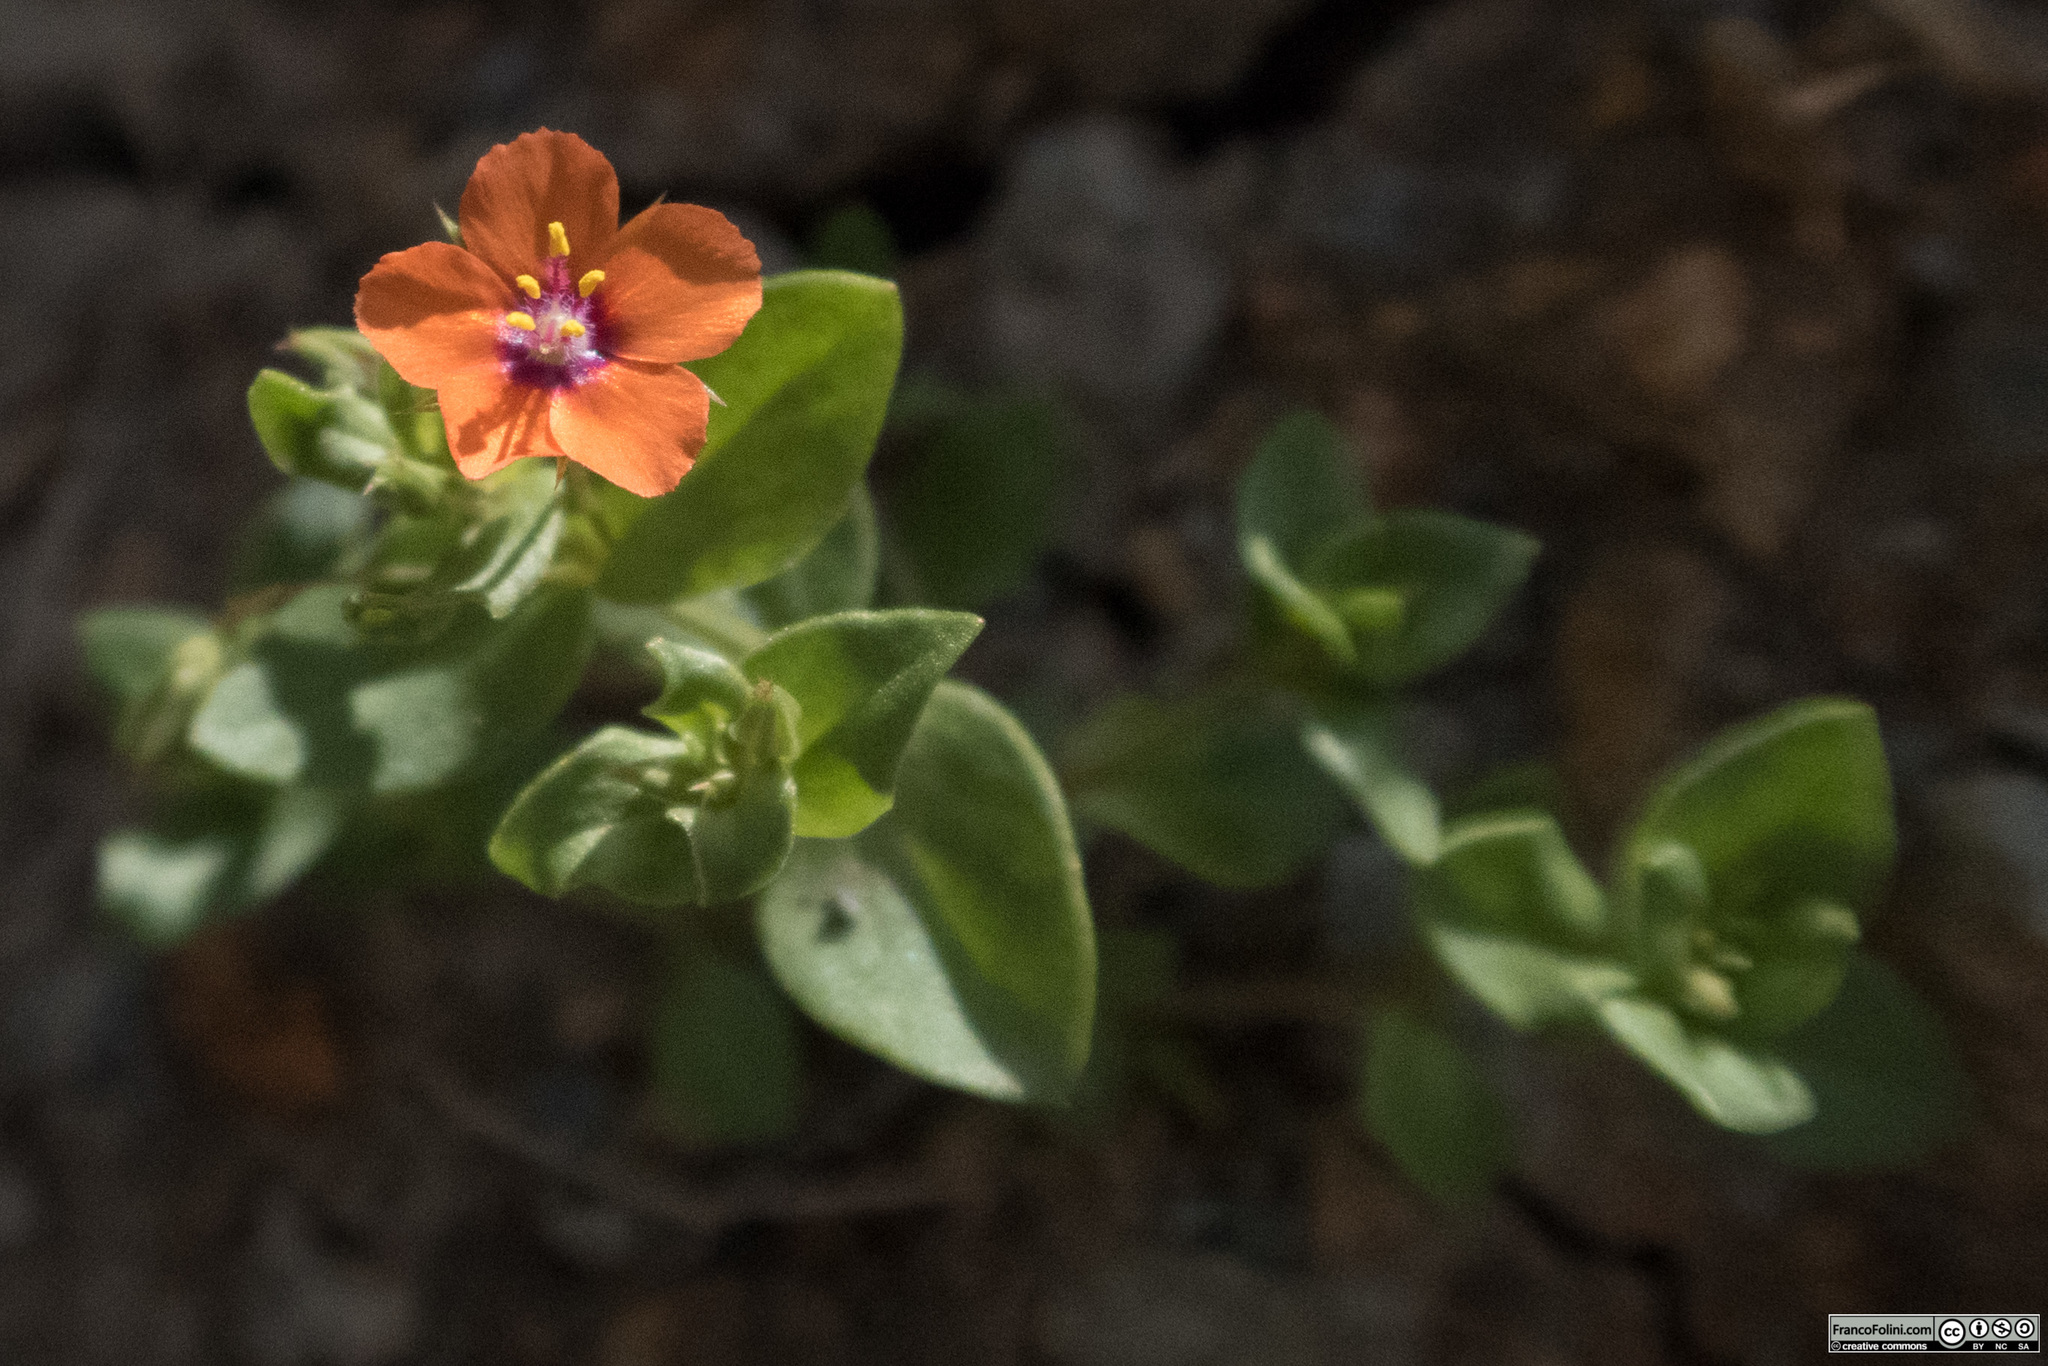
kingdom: Plantae
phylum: Tracheophyta
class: Magnoliopsida
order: Ericales
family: Primulaceae
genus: Lysimachia
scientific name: Lysimachia arvensis
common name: Scarlet pimpernel
